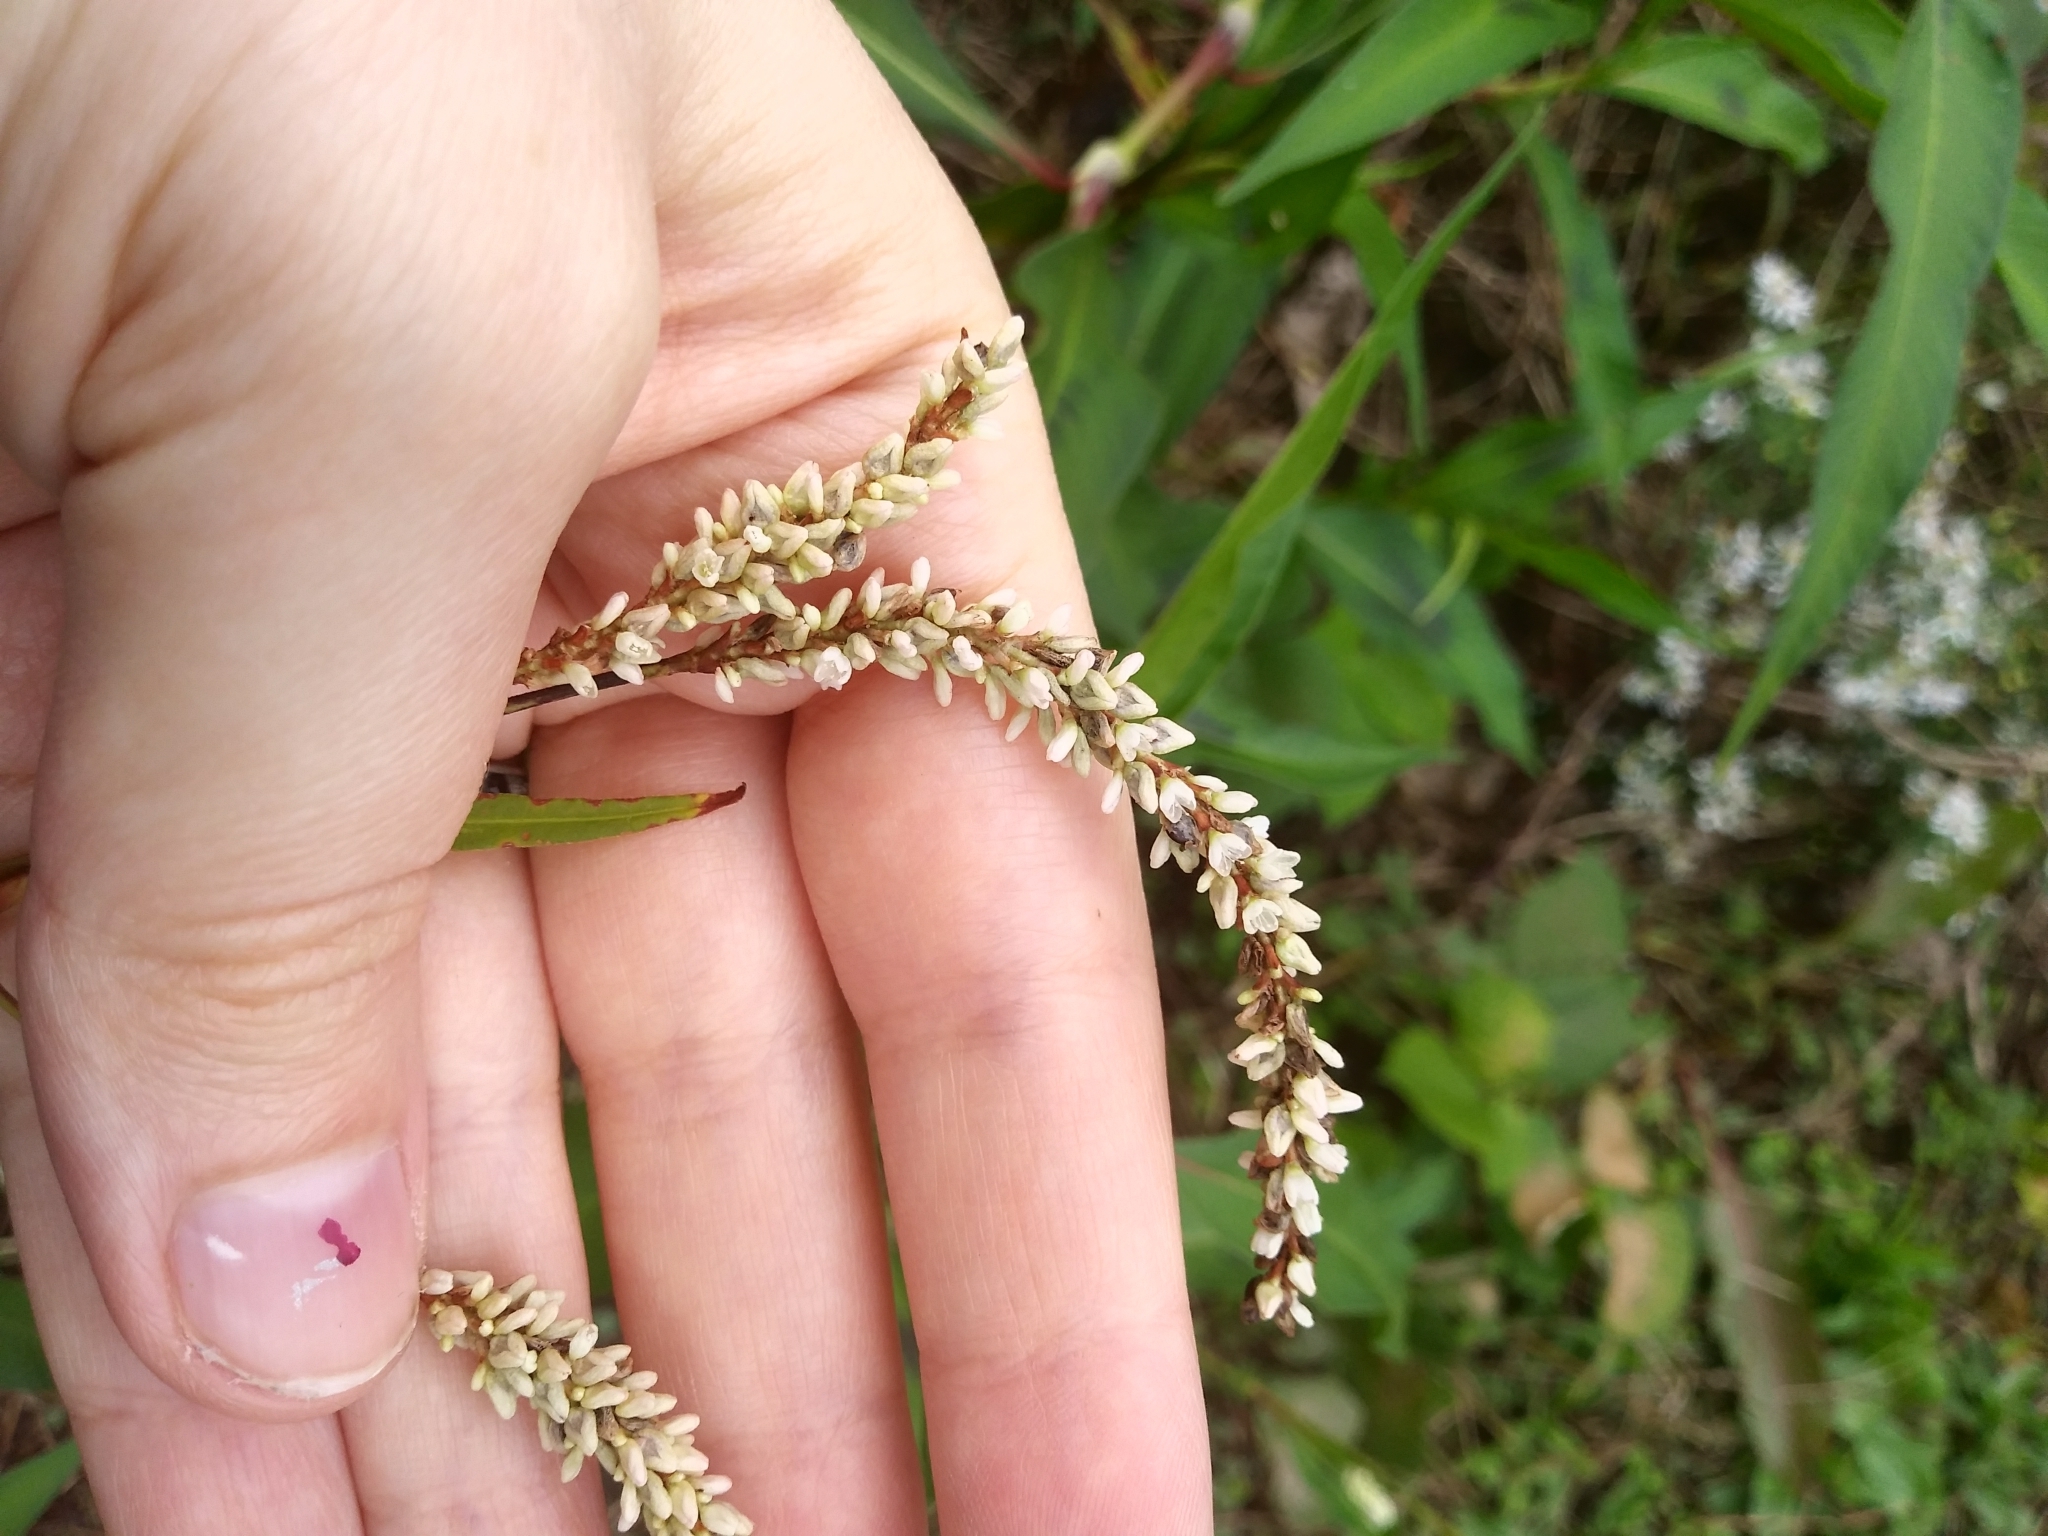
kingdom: Plantae
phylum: Tracheophyta
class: Magnoliopsida
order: Caryophyllales
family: Polygonaceae
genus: Persicaria
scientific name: Persicaria maculosa
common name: Redshank
